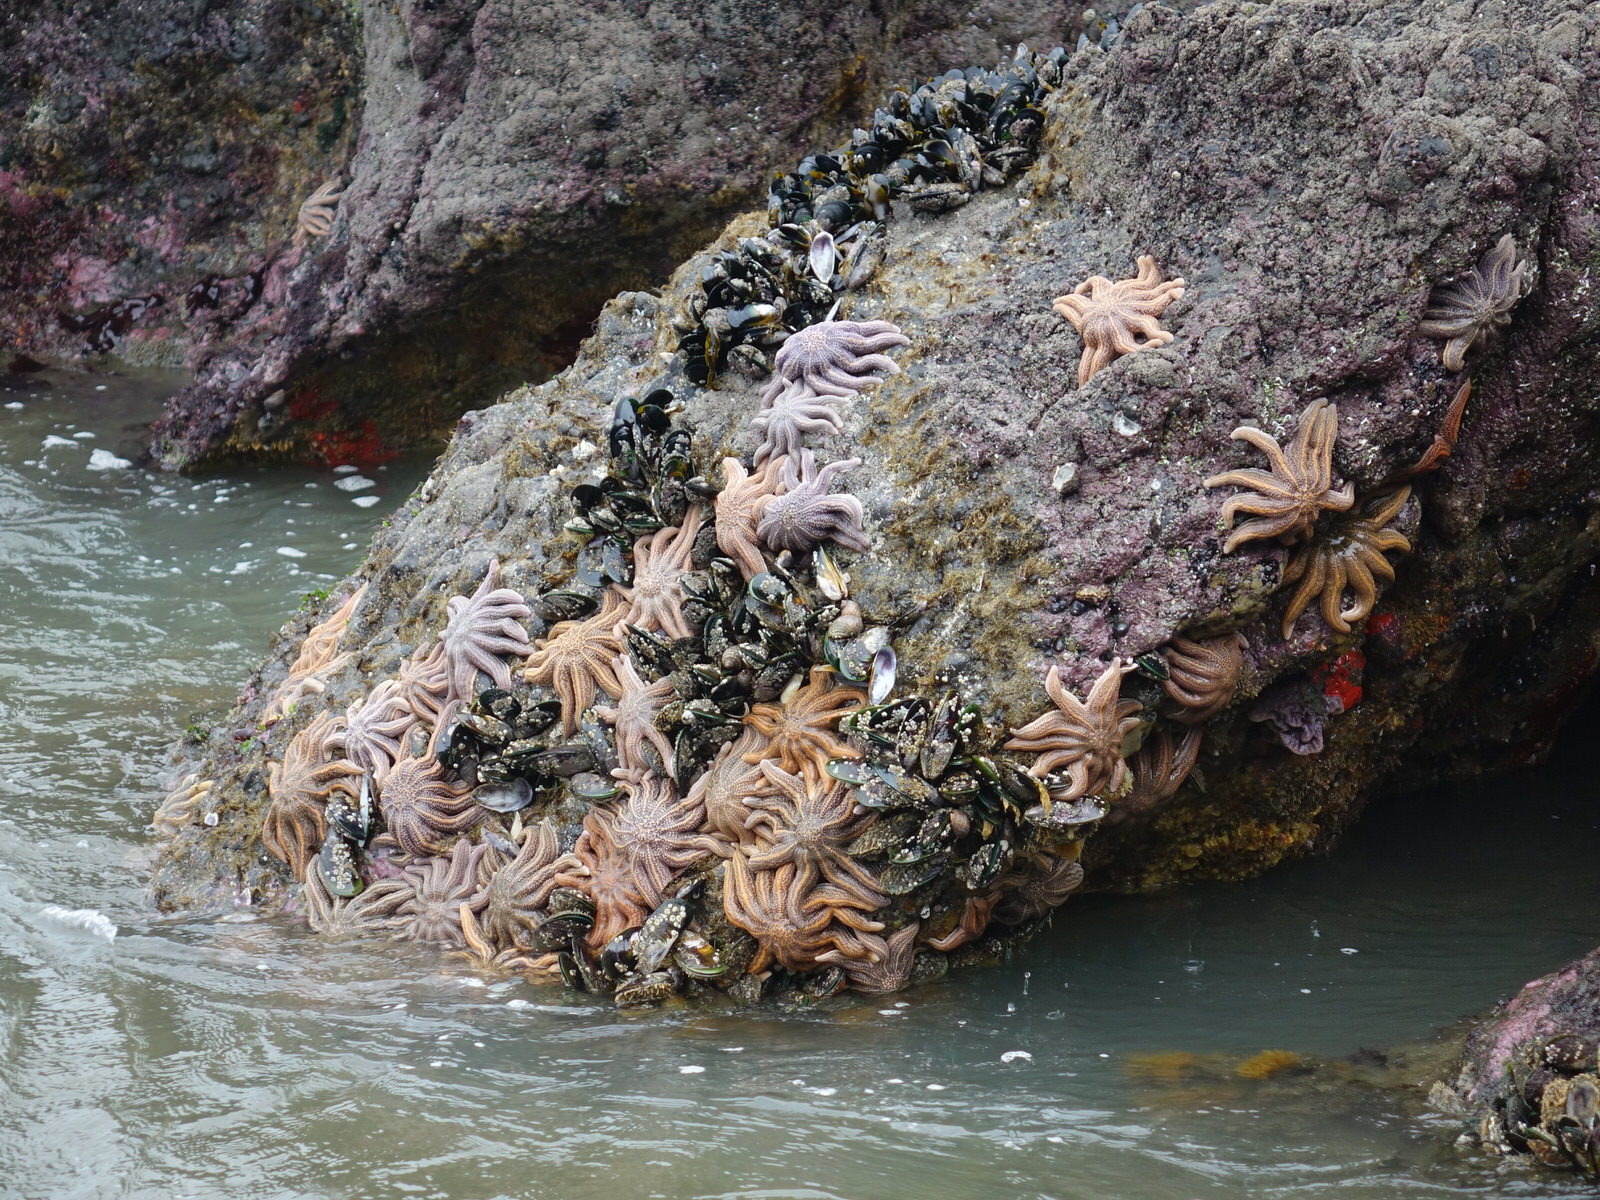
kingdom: Animalia
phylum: Echinodermata
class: Asteroidea
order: Forcipulatida
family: Stichasteridae
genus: Stichaster
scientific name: Stichaster australis
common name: Reef starfish
